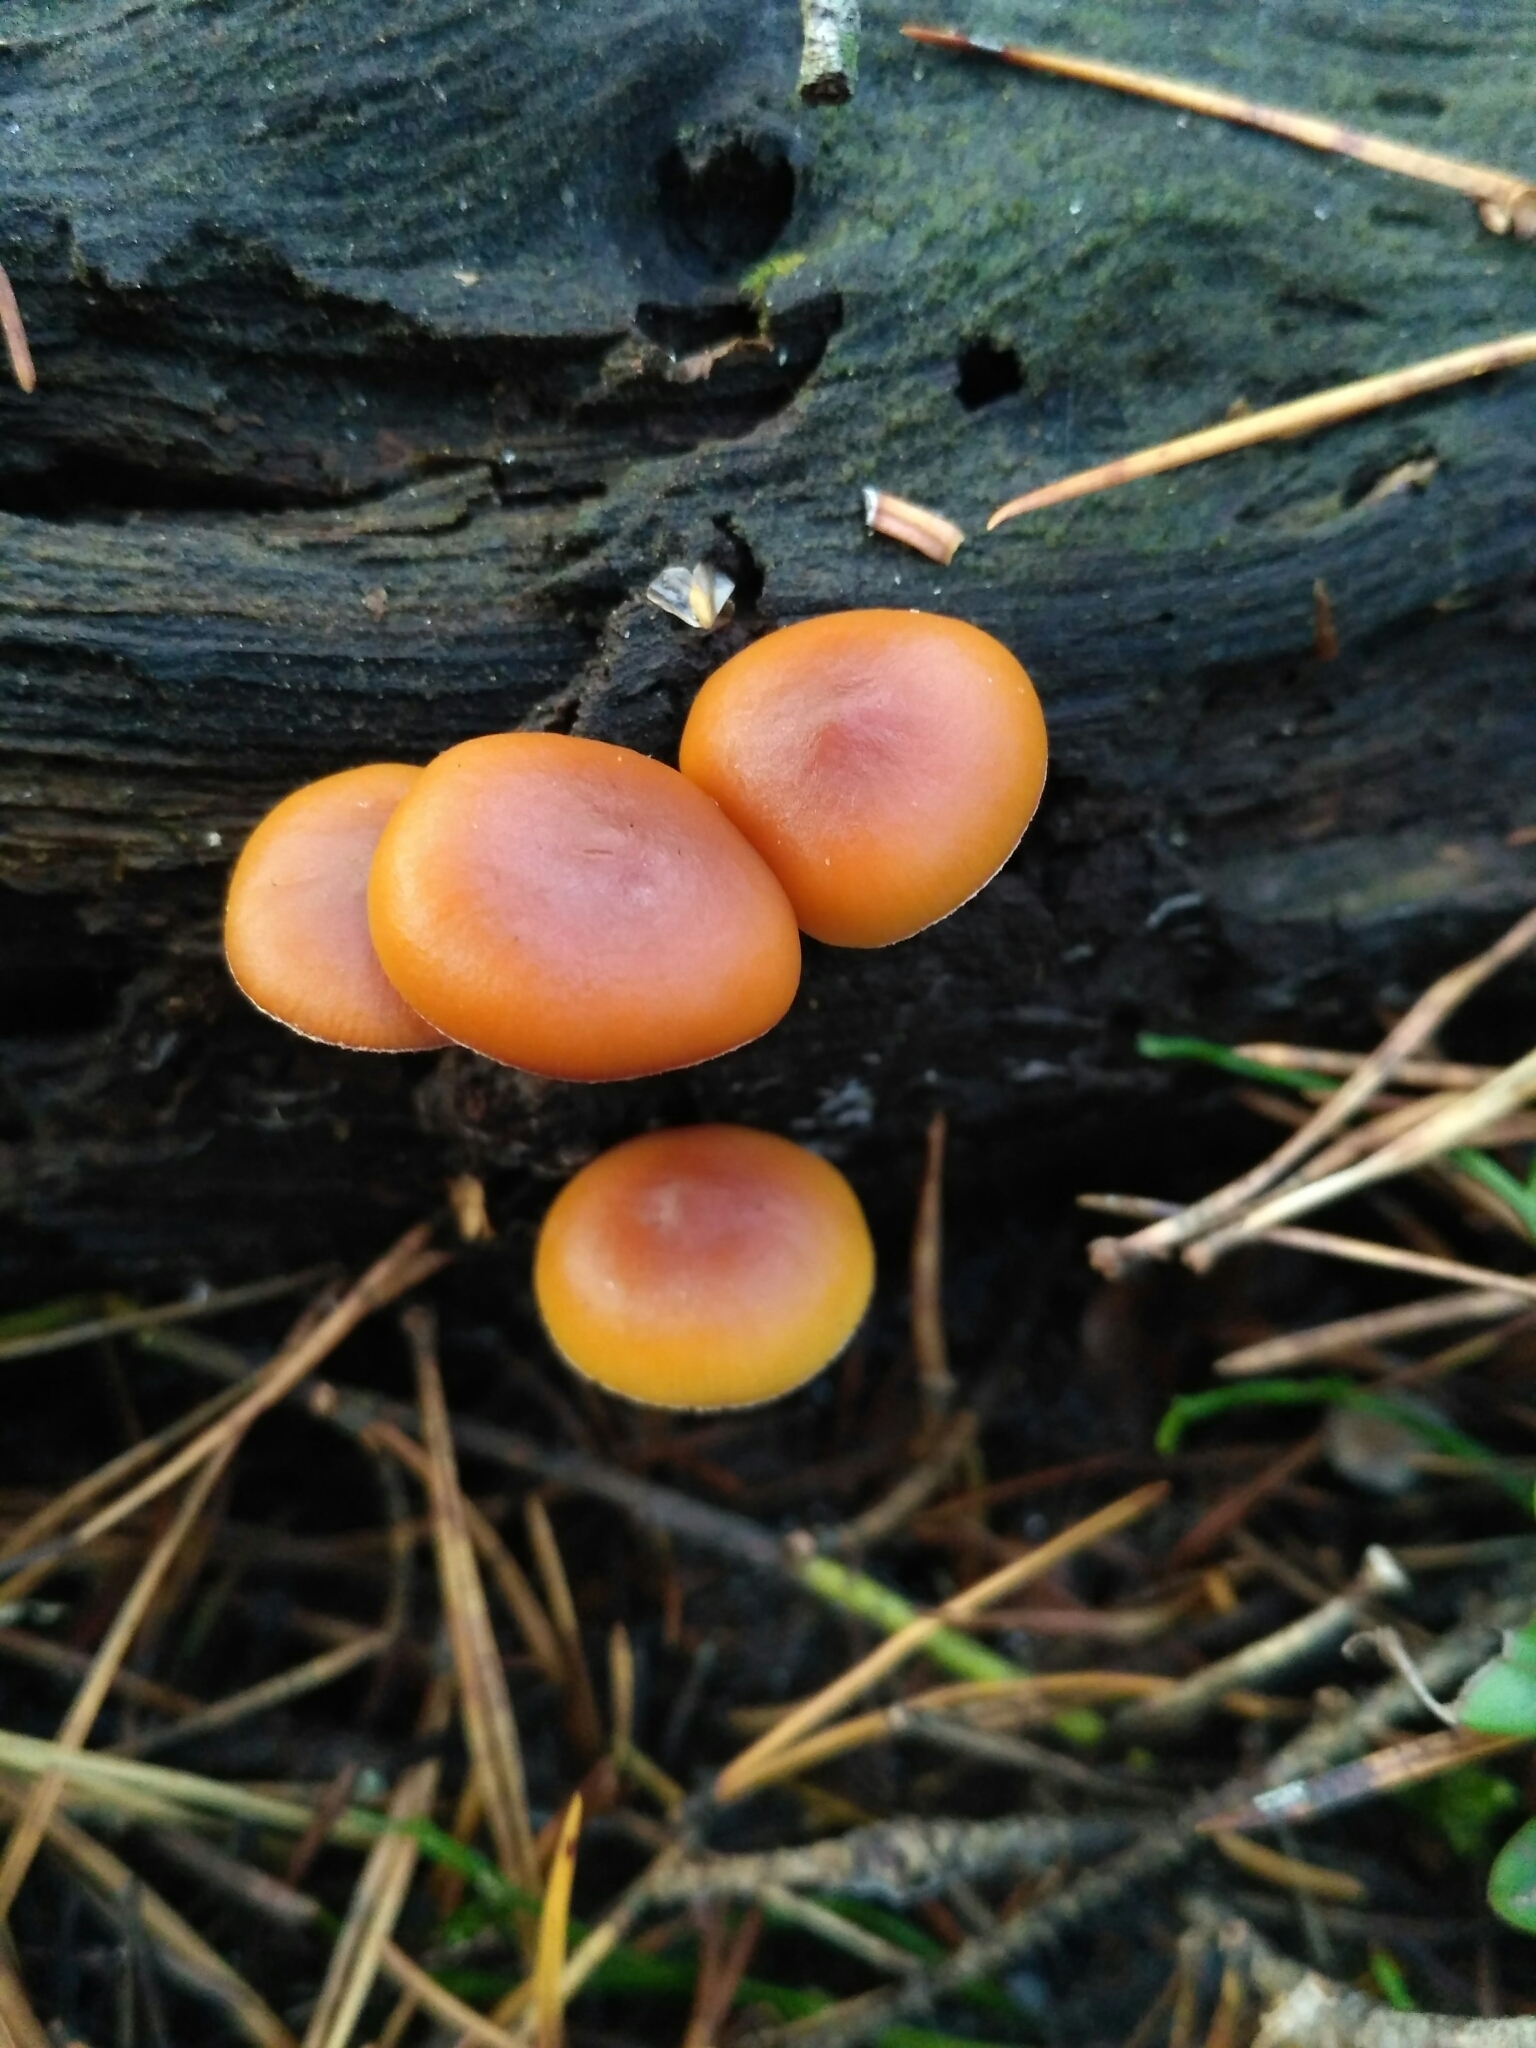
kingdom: Fungi
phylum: Basidiomycota
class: Agaricomycetes
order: Agaricales
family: Hymenogastraceae
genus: Galerina
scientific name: Galerina marginata
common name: Funeral bell
